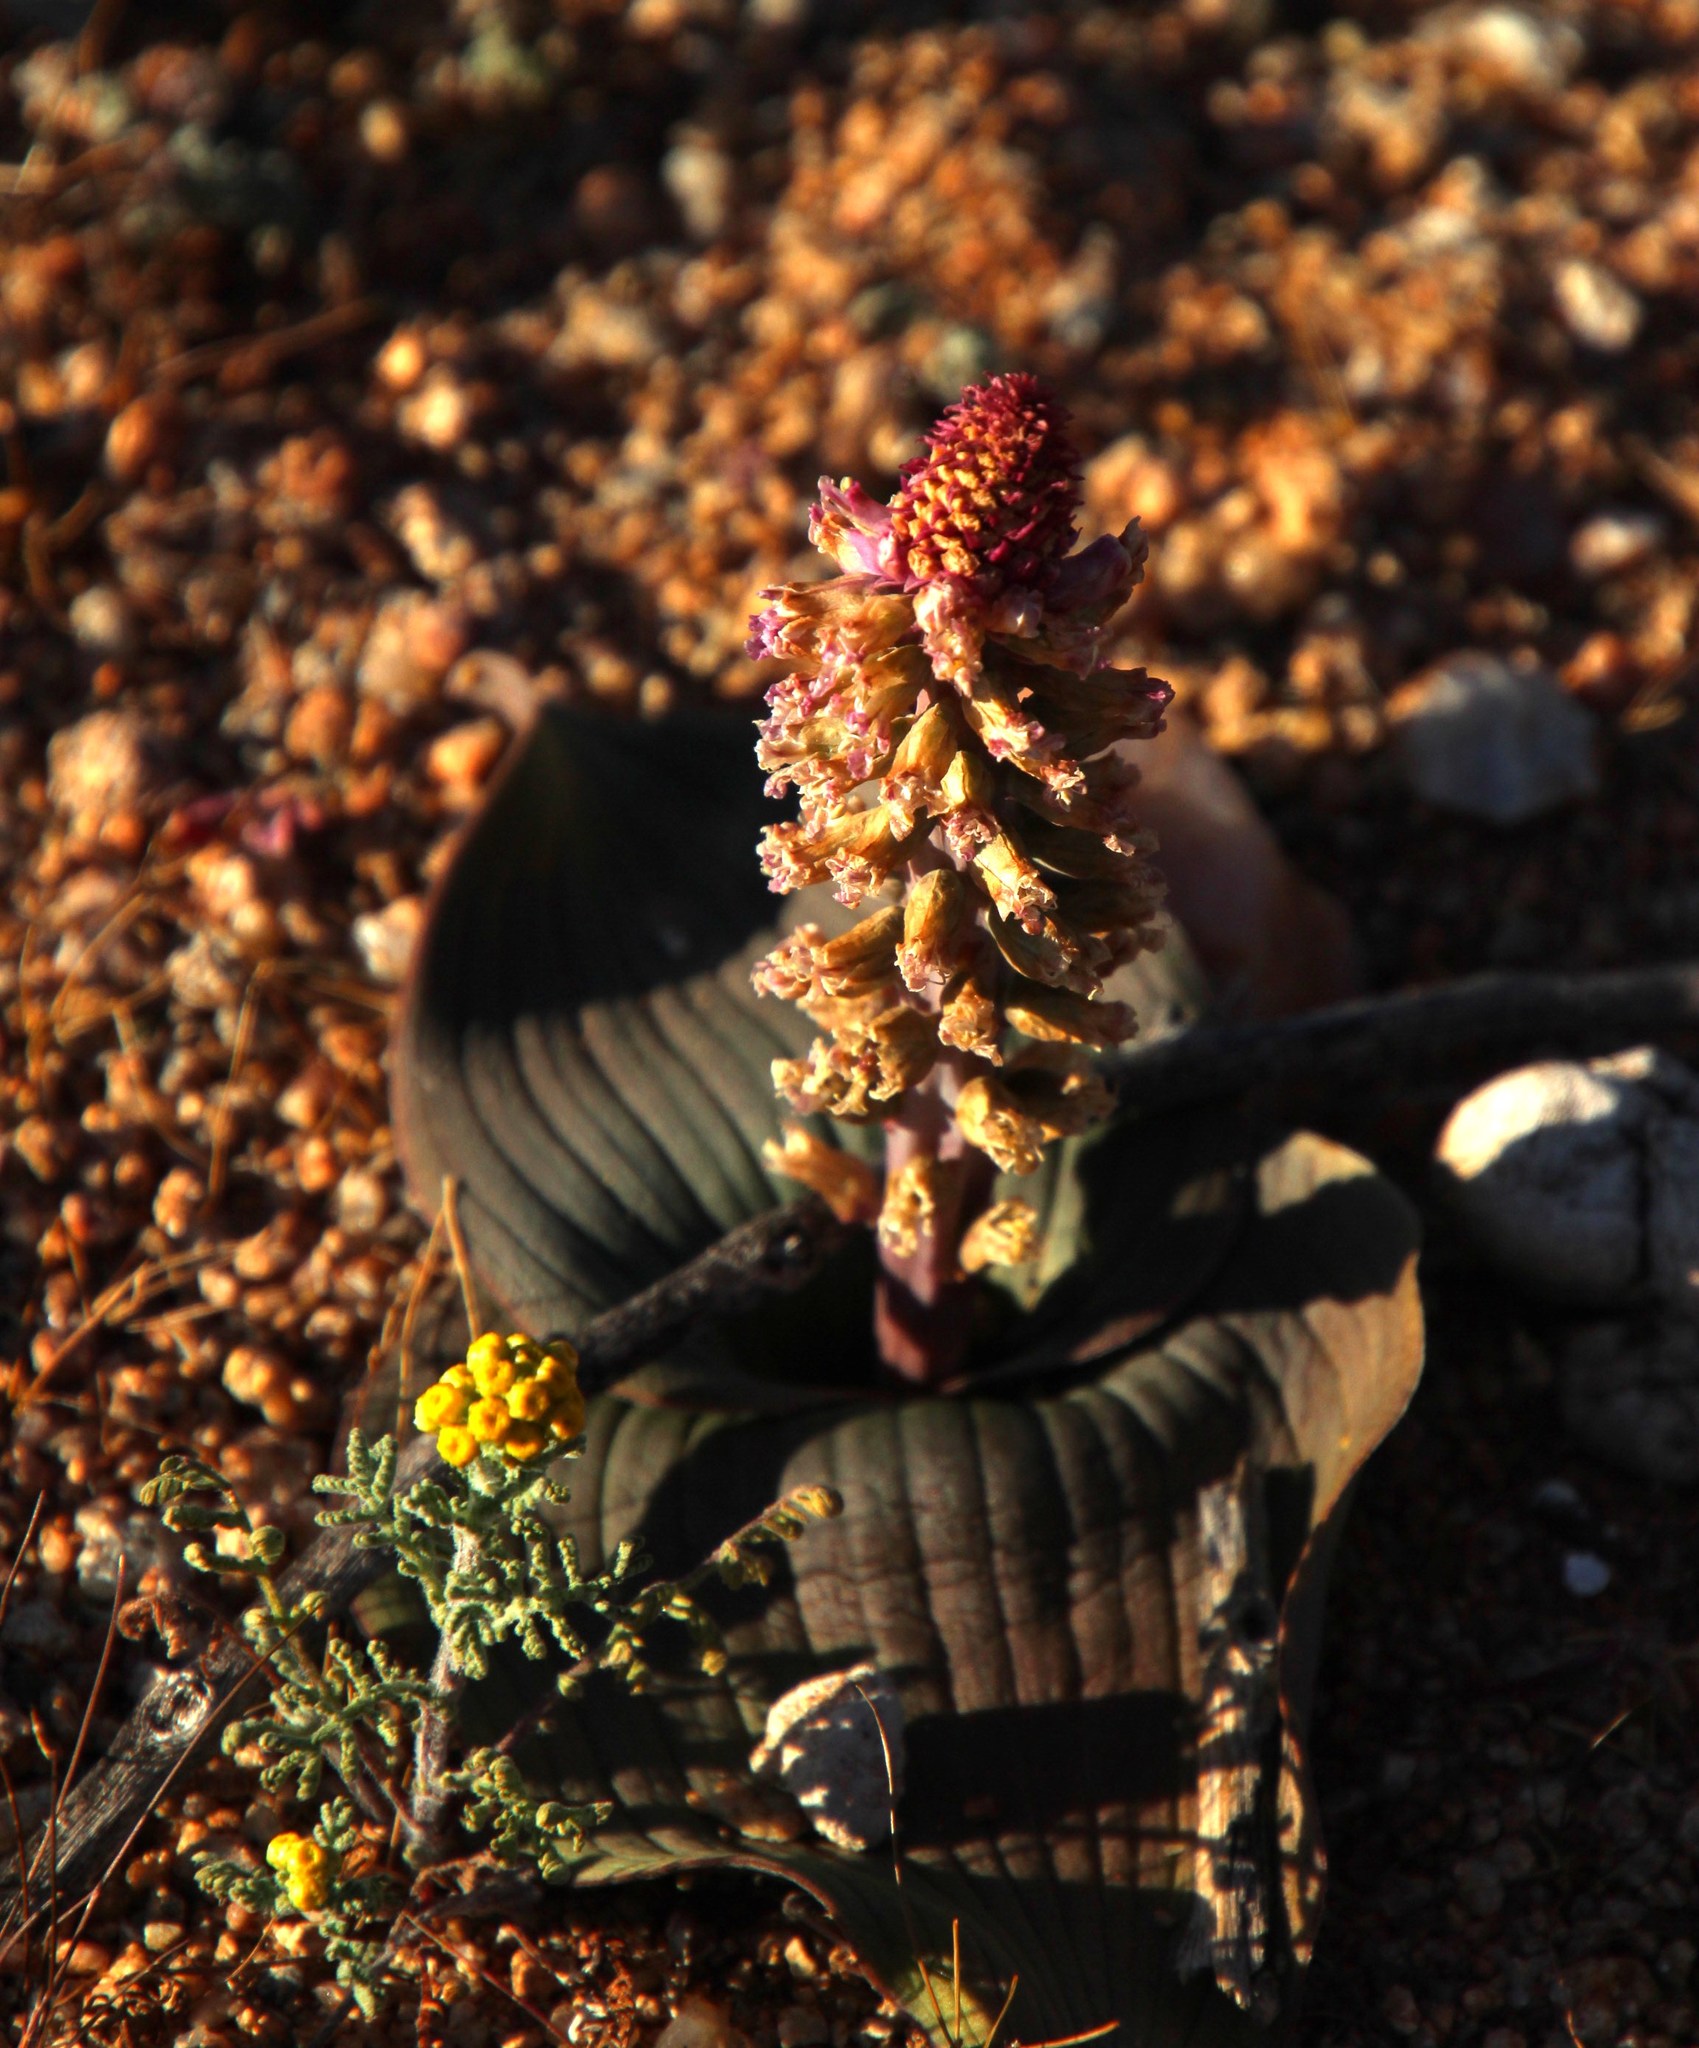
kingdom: Plantae
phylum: Tracheophyta
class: Liliopsida
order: Asparagales
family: Asparagaceae
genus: Lachenalia
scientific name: Lachenalia carnosa
